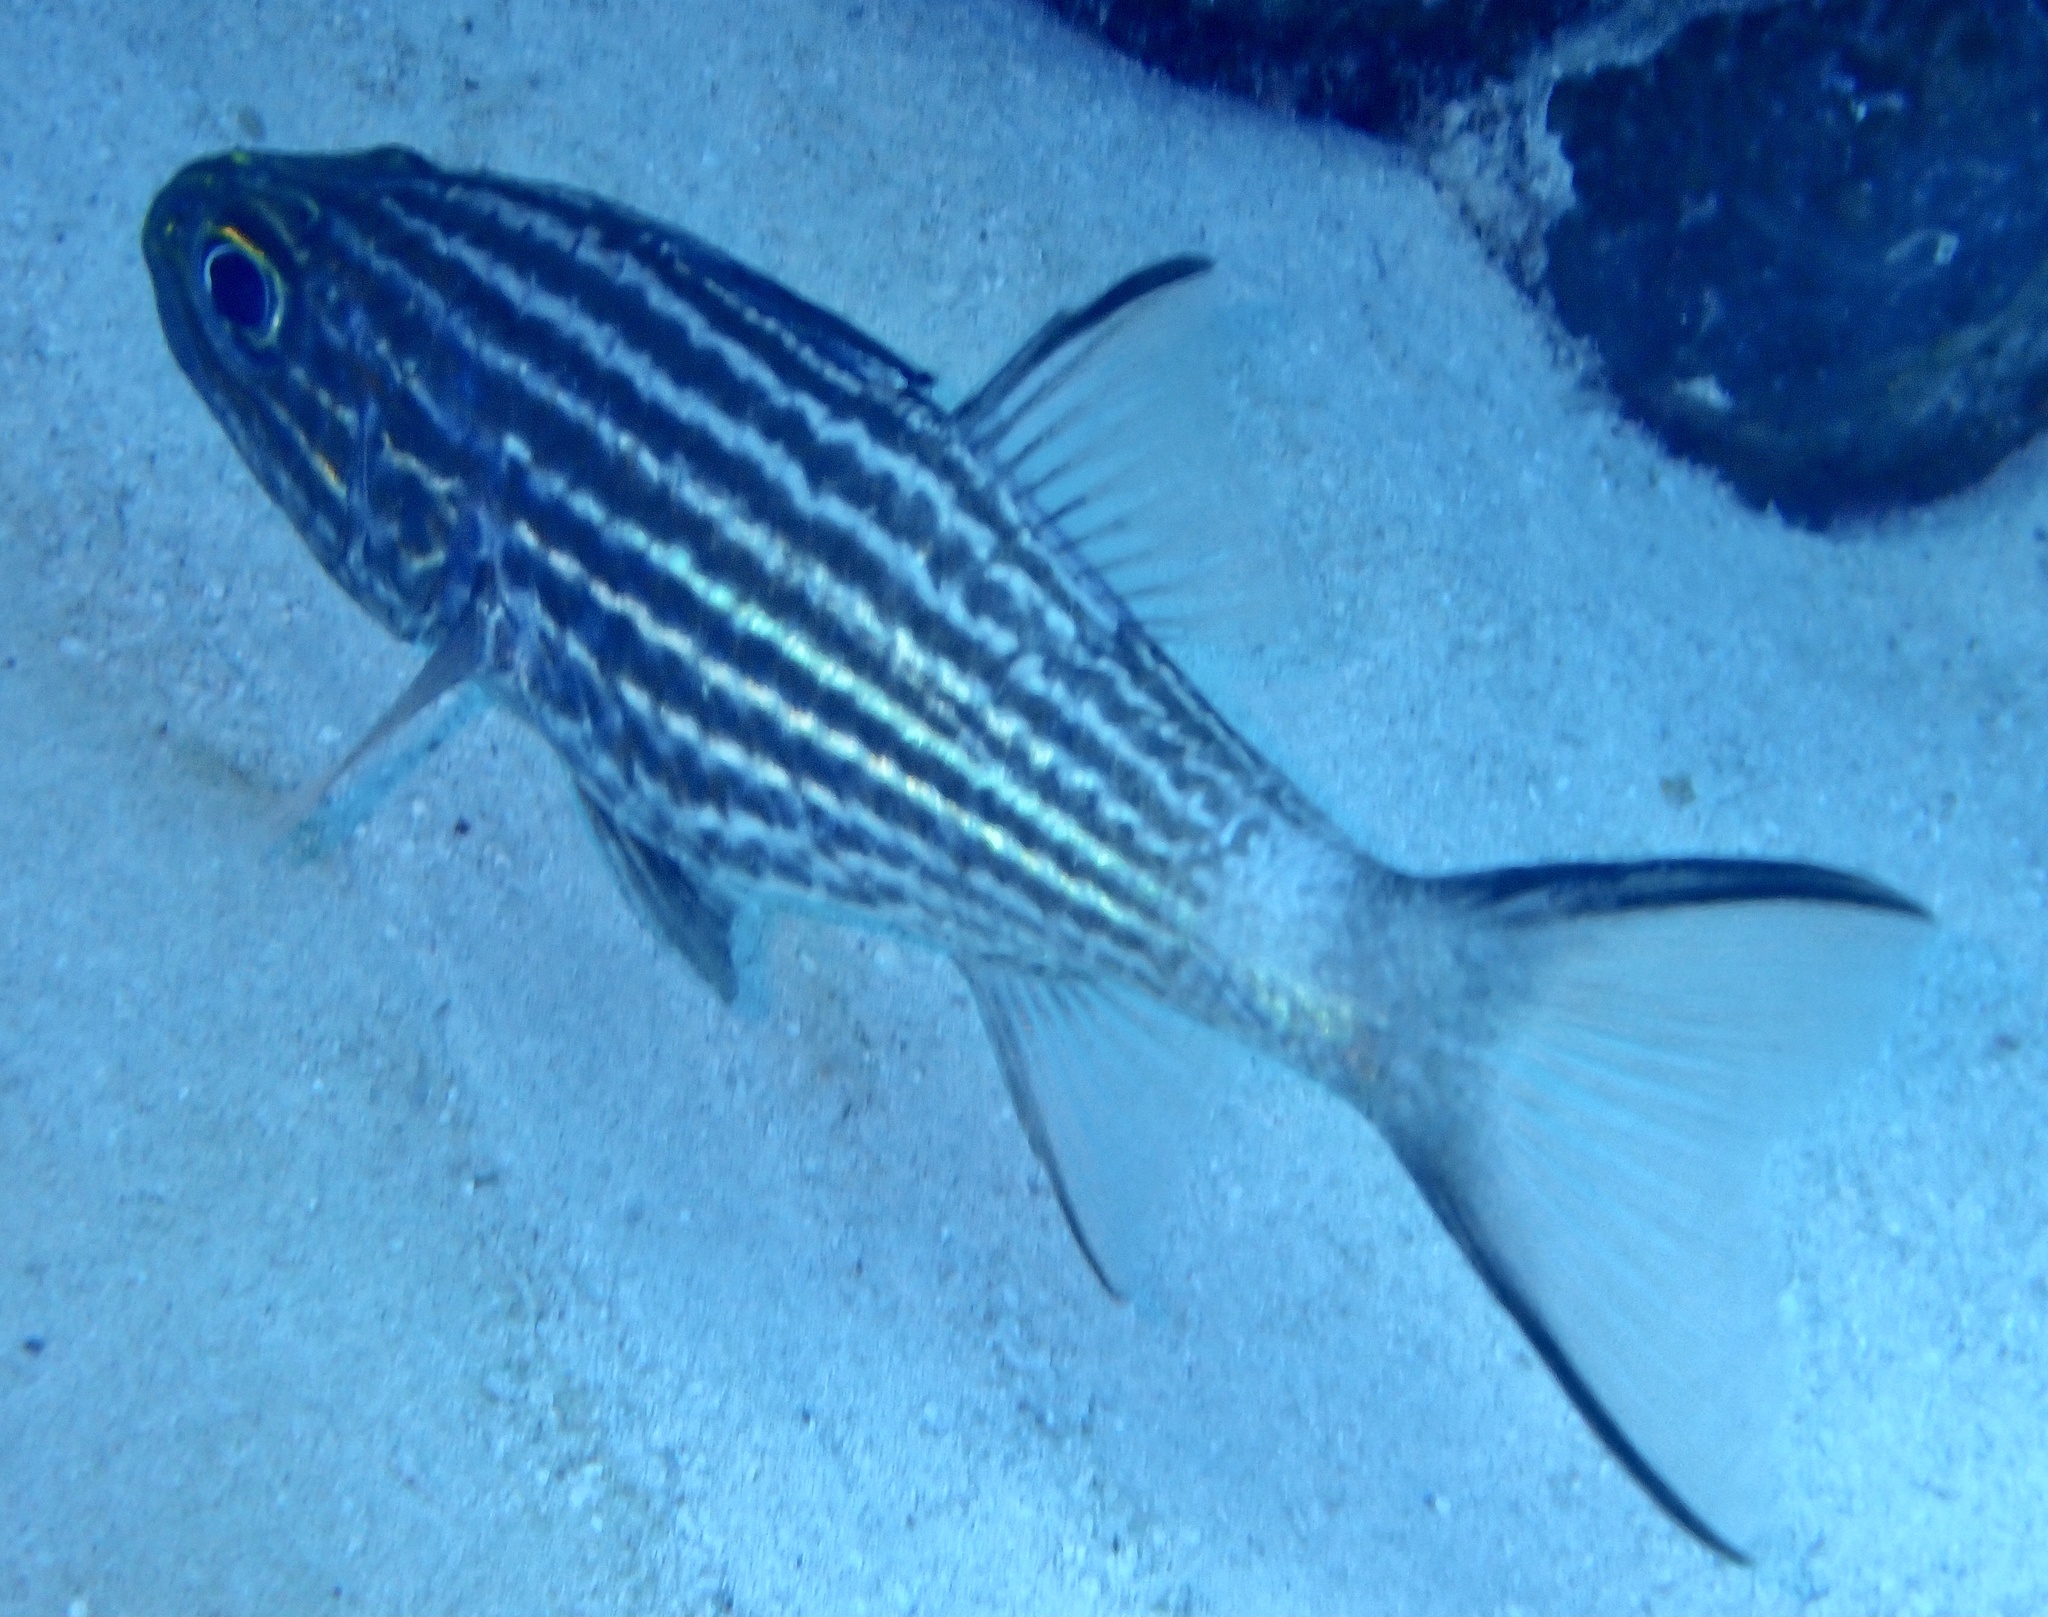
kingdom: Animalia
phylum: Chordata
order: Perciformes
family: Apogonidae
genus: Cheilodipterus
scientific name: Cheilodipterus macrodon
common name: Eight-lined cardinalfish
